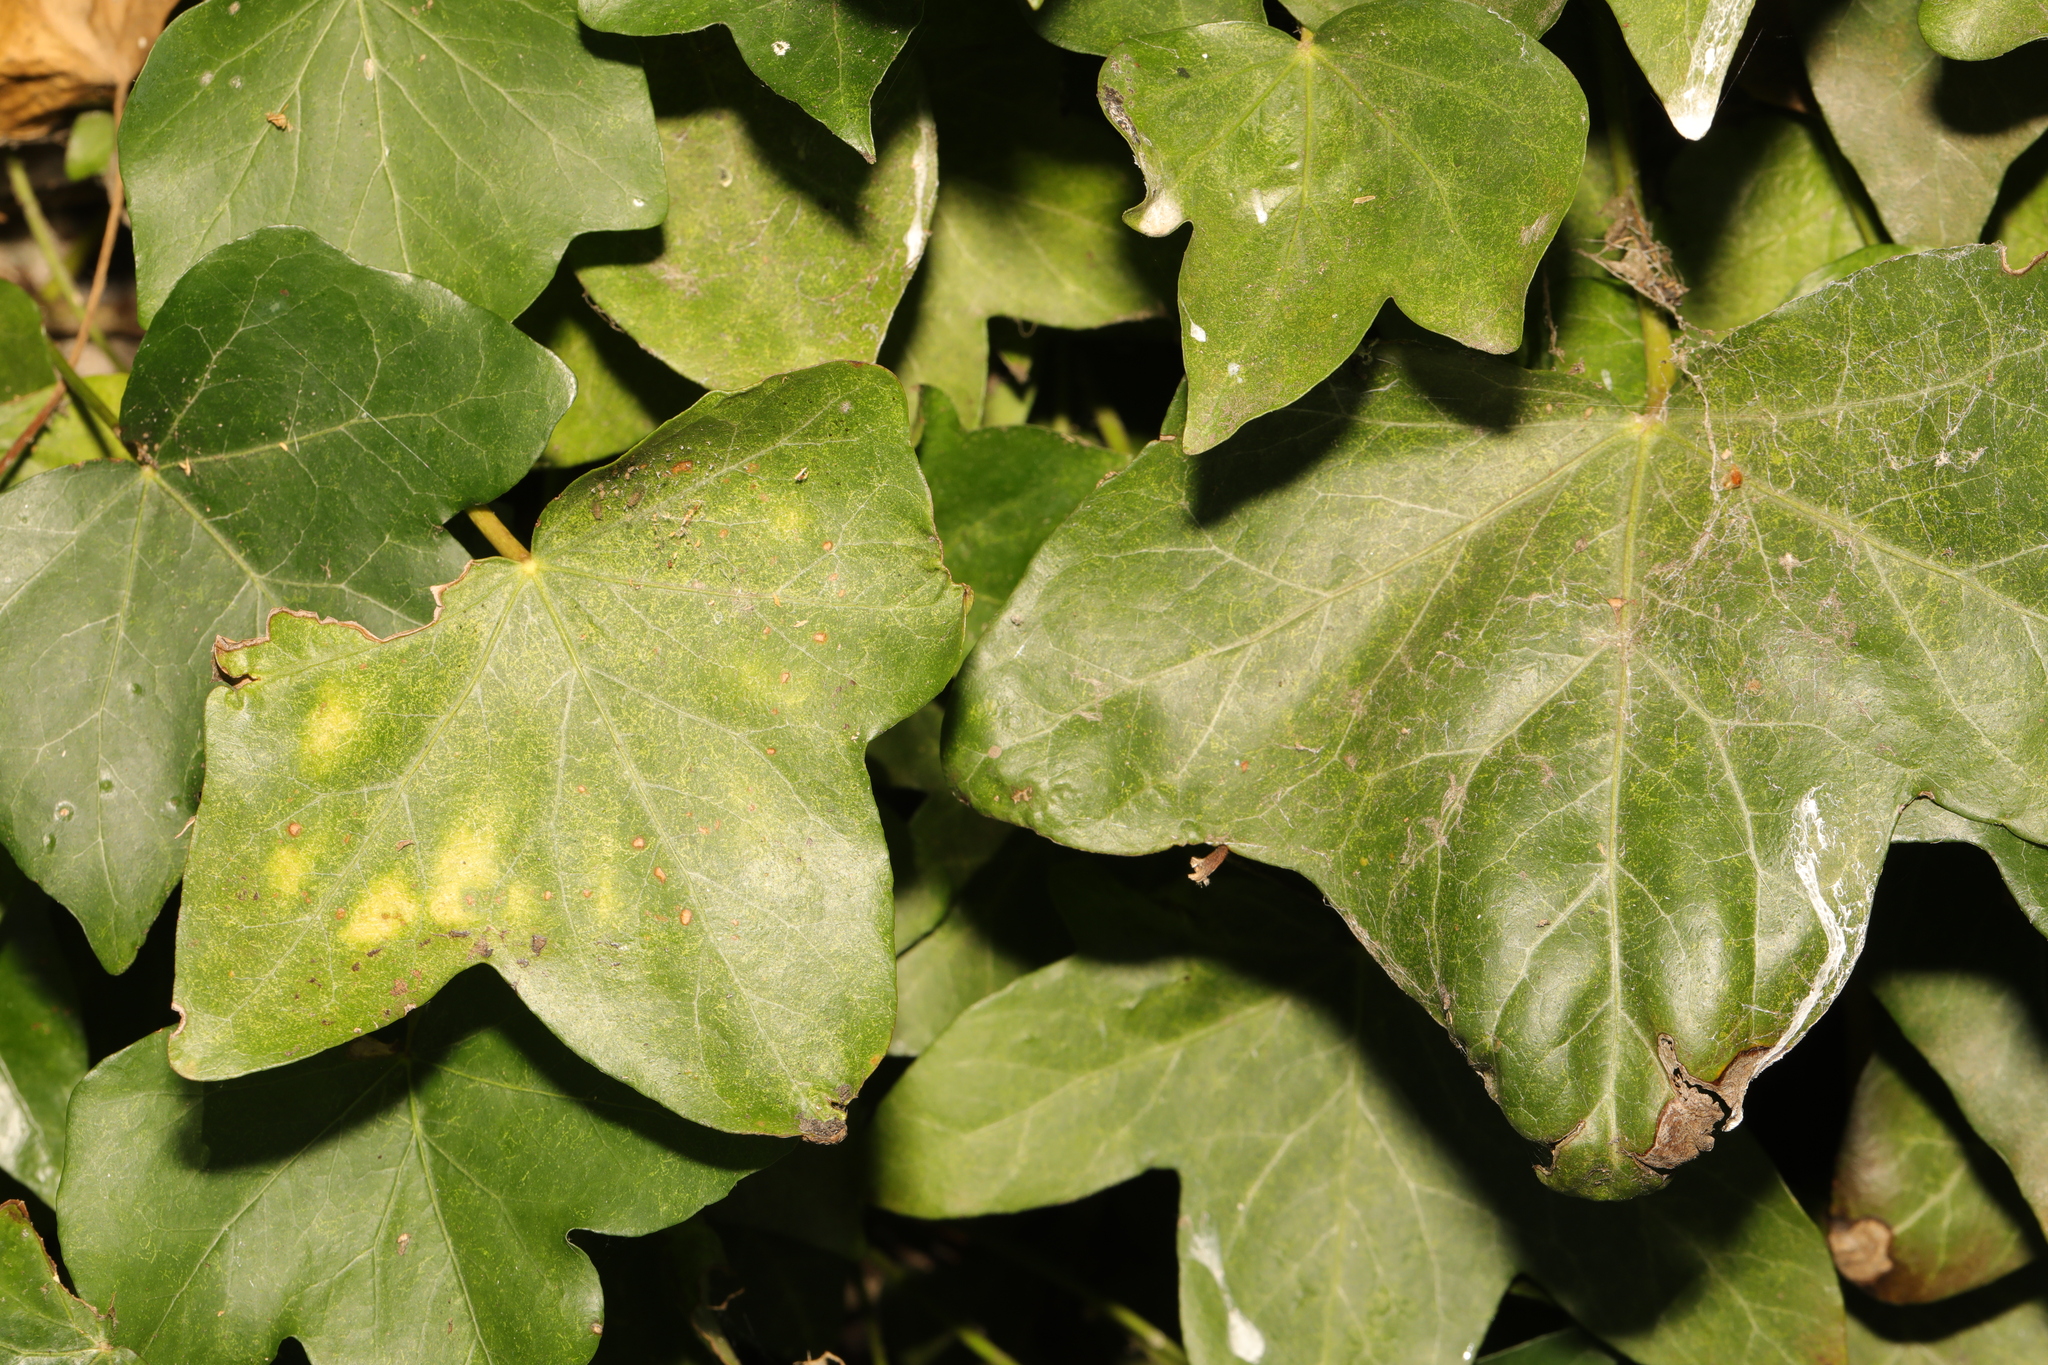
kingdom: Plantae
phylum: Tracheophyta
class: Magnoliopsida
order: Apiales
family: Araliaceae
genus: Hedera
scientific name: Hedera helix
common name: Ivy
